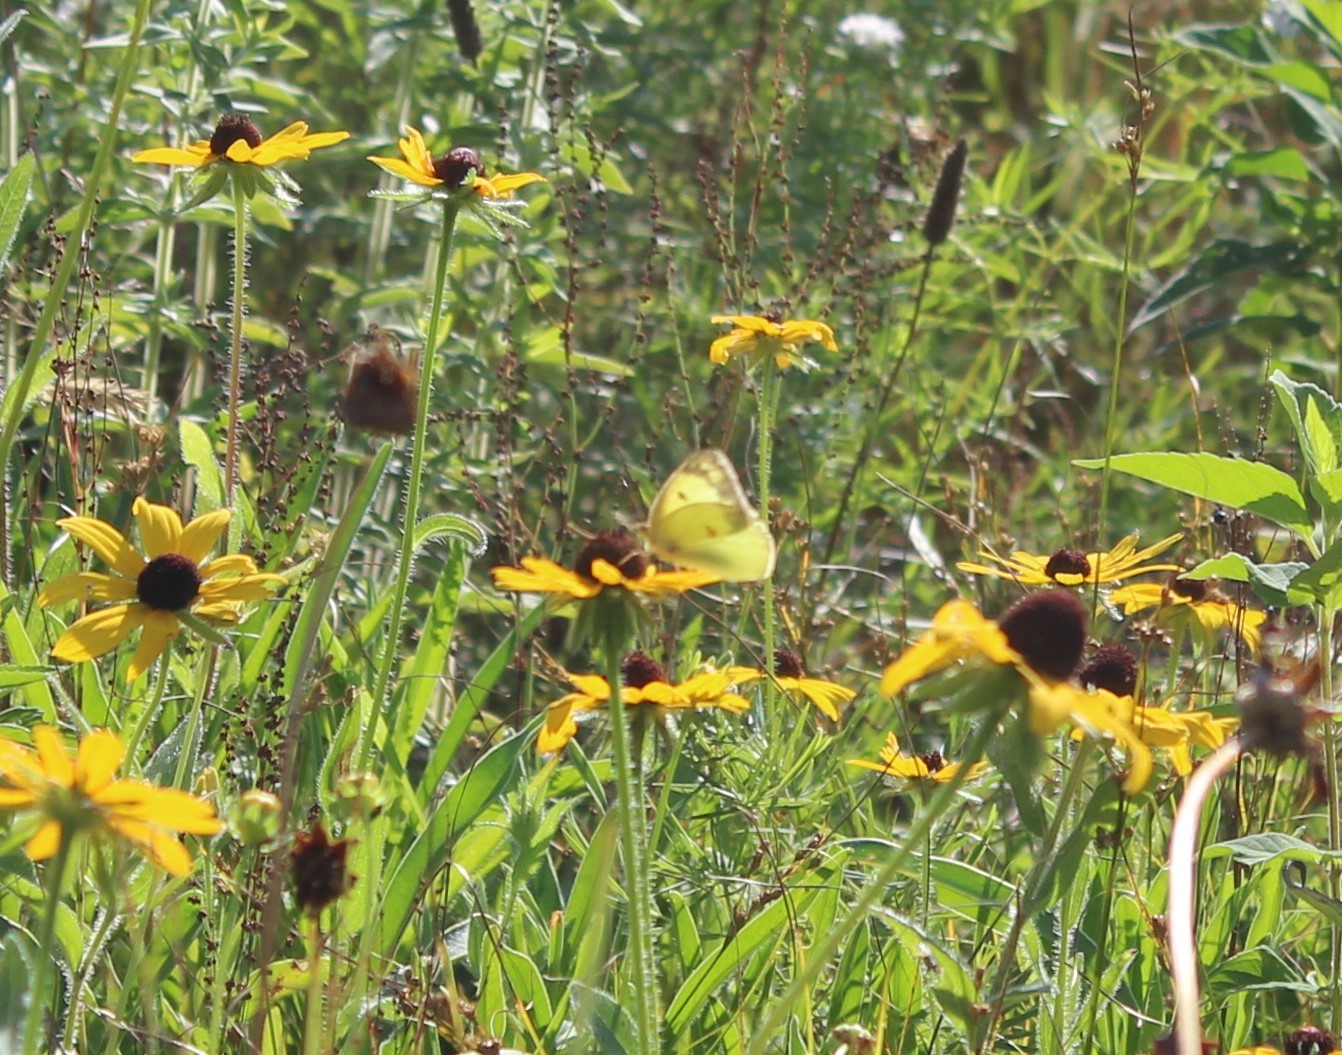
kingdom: Animalia
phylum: Arthropoda
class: Insecta
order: Lepidoptera
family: Pieridae
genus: Colias
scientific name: Colias philodice
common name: Clouded sulphur
